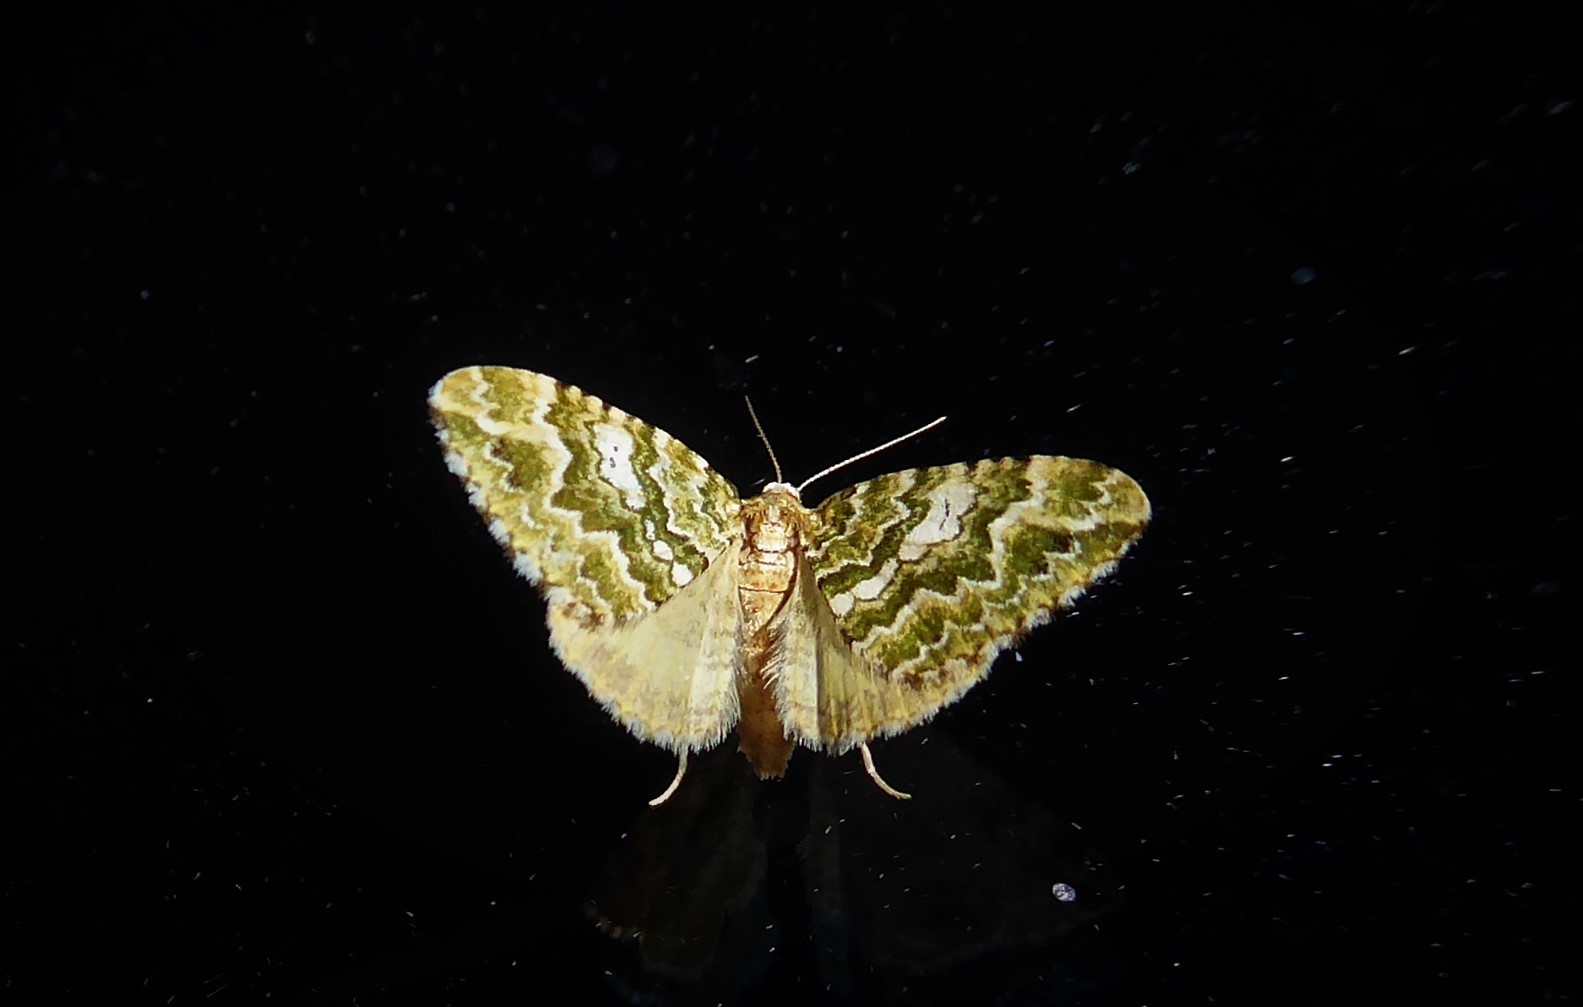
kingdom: Animalia
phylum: Arthropoda
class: Insecta
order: Lepidoptera
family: Geometridae
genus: Asaphodes
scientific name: Asaphodes beata
